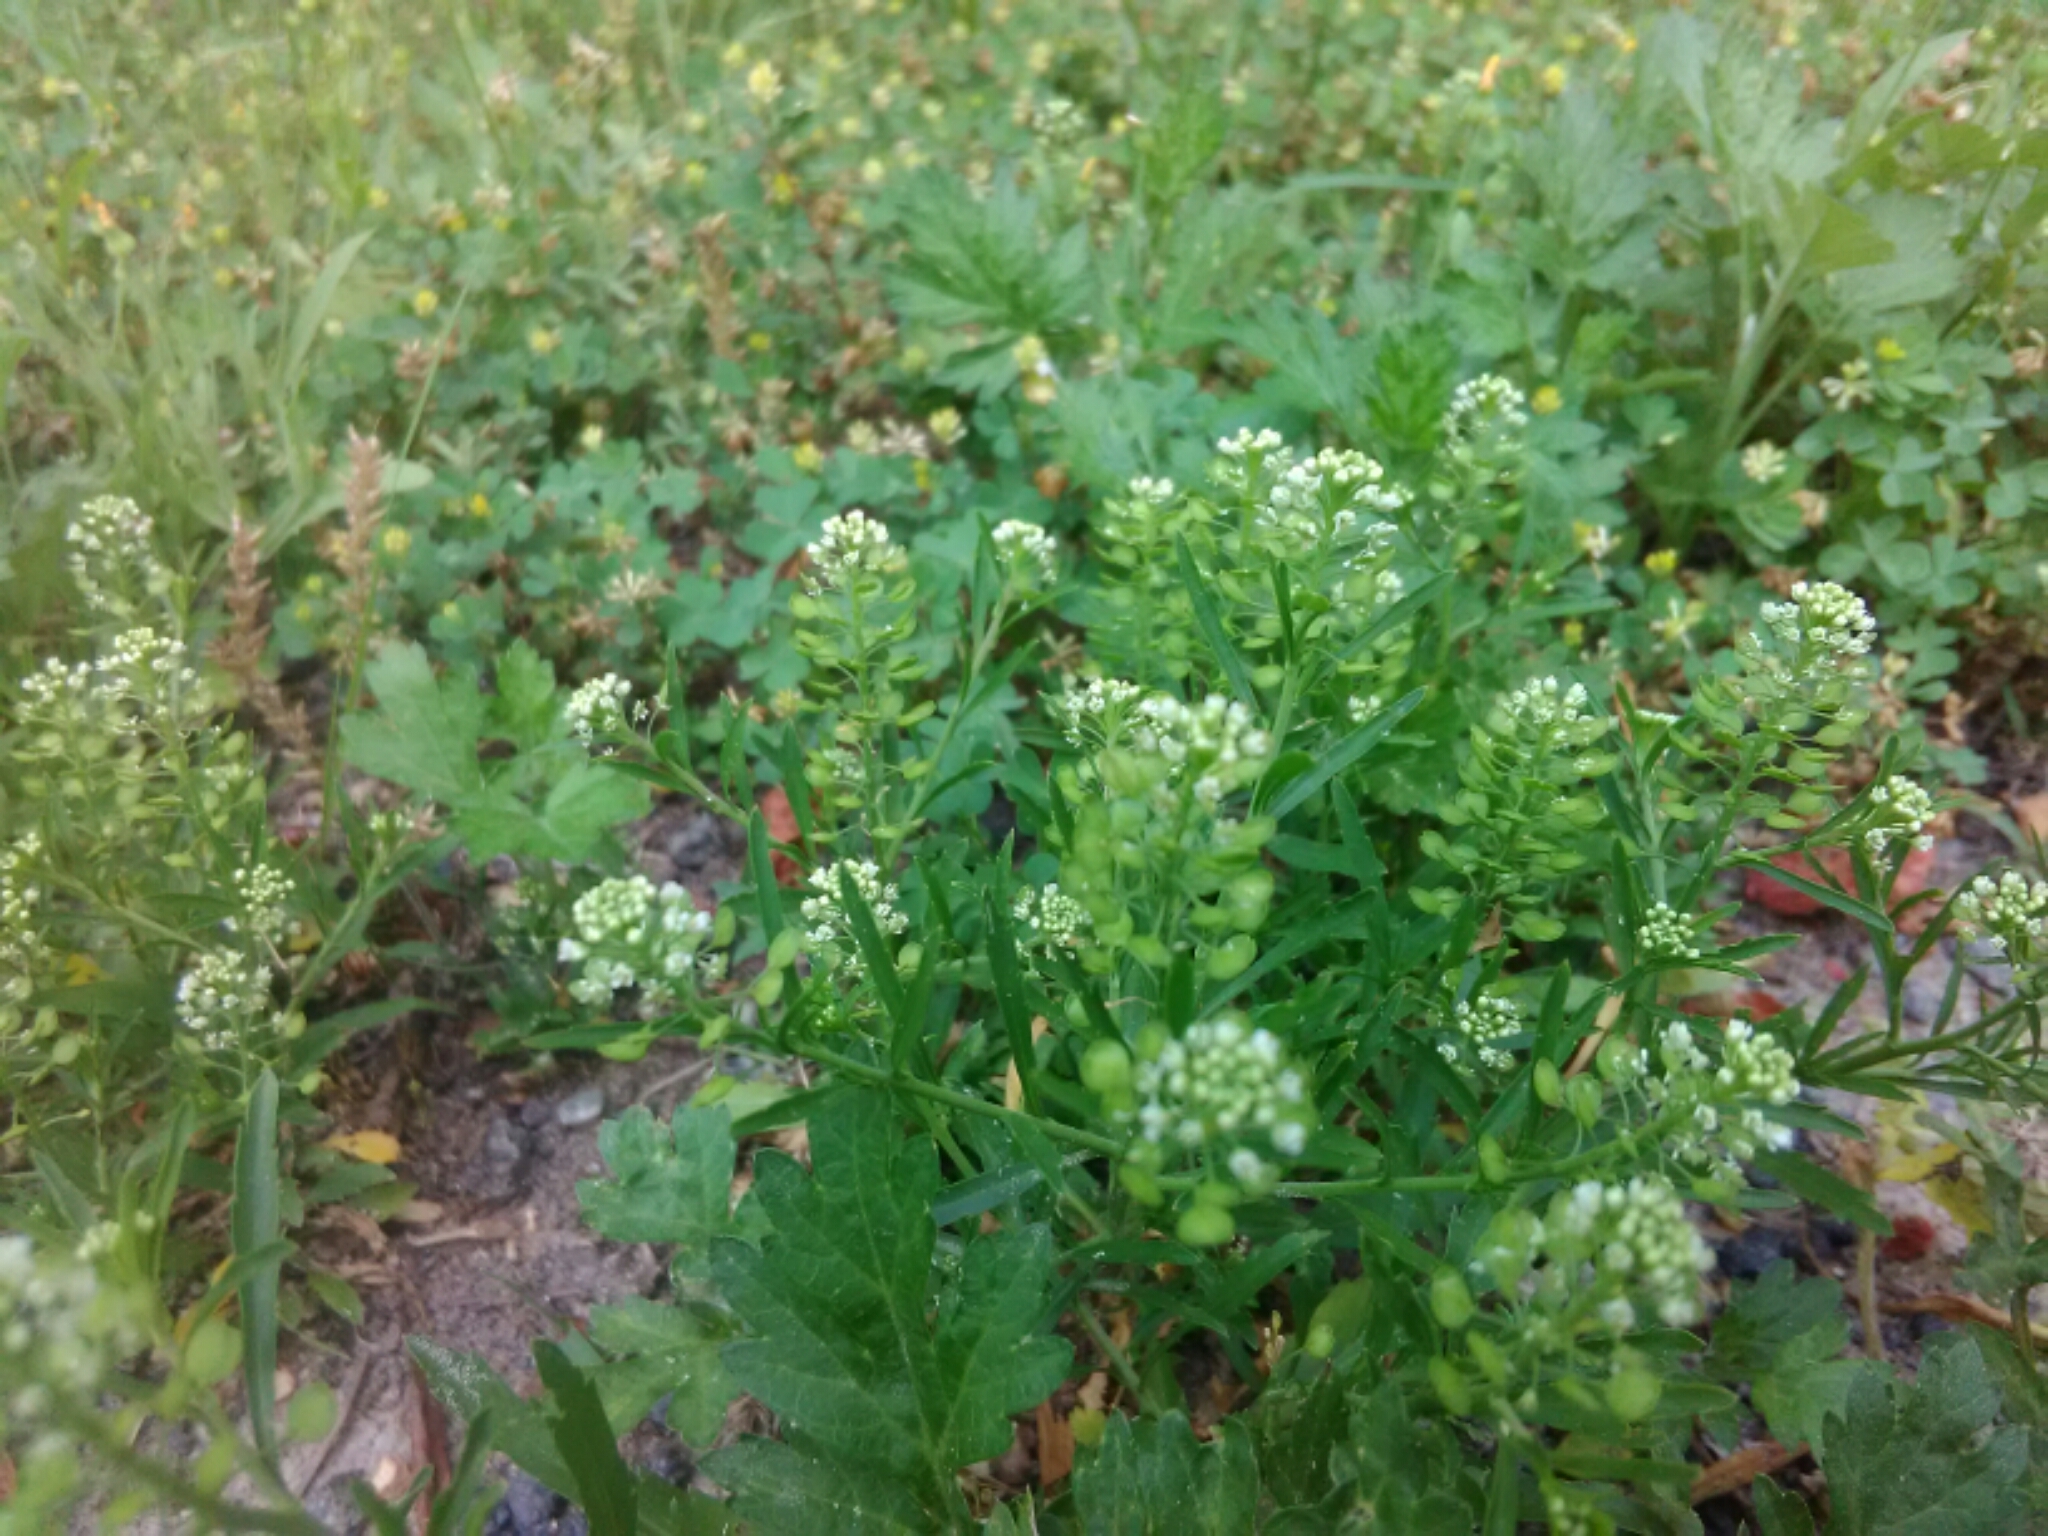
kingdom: Plantae
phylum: Tracheophyta
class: Magnoliopsida
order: Brassicales
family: Brassicaceae
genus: Lepidium
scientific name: Lepidium virginicum
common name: Least pepperwort
